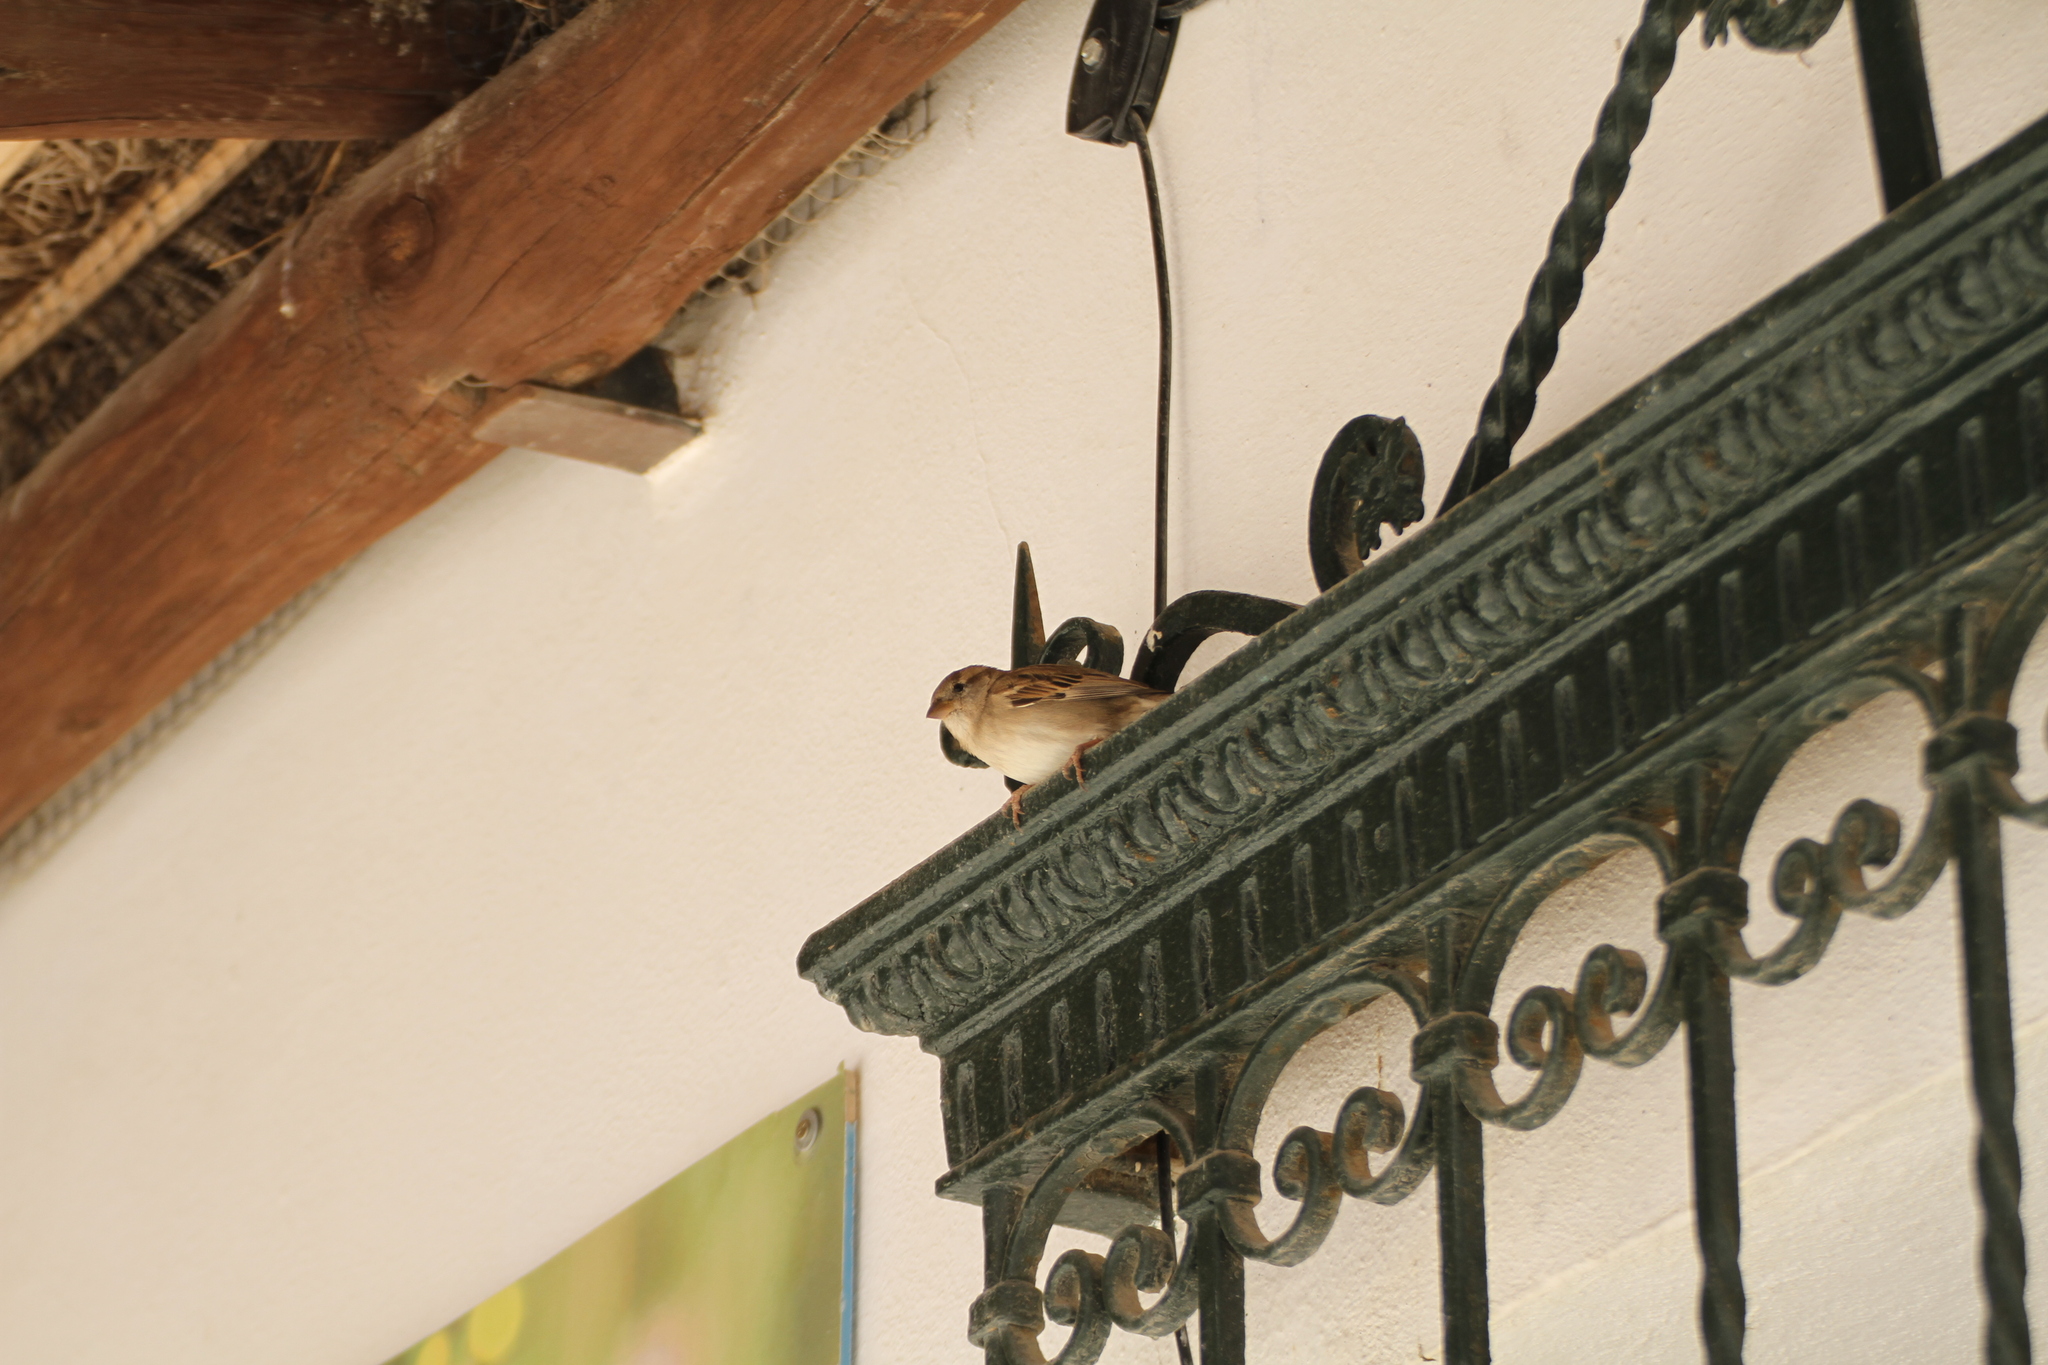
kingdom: Animalia
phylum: Chordata
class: Aves
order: Passeriformes
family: Passeridae
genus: Passer
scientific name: Passer domesticus
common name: House sparrow
